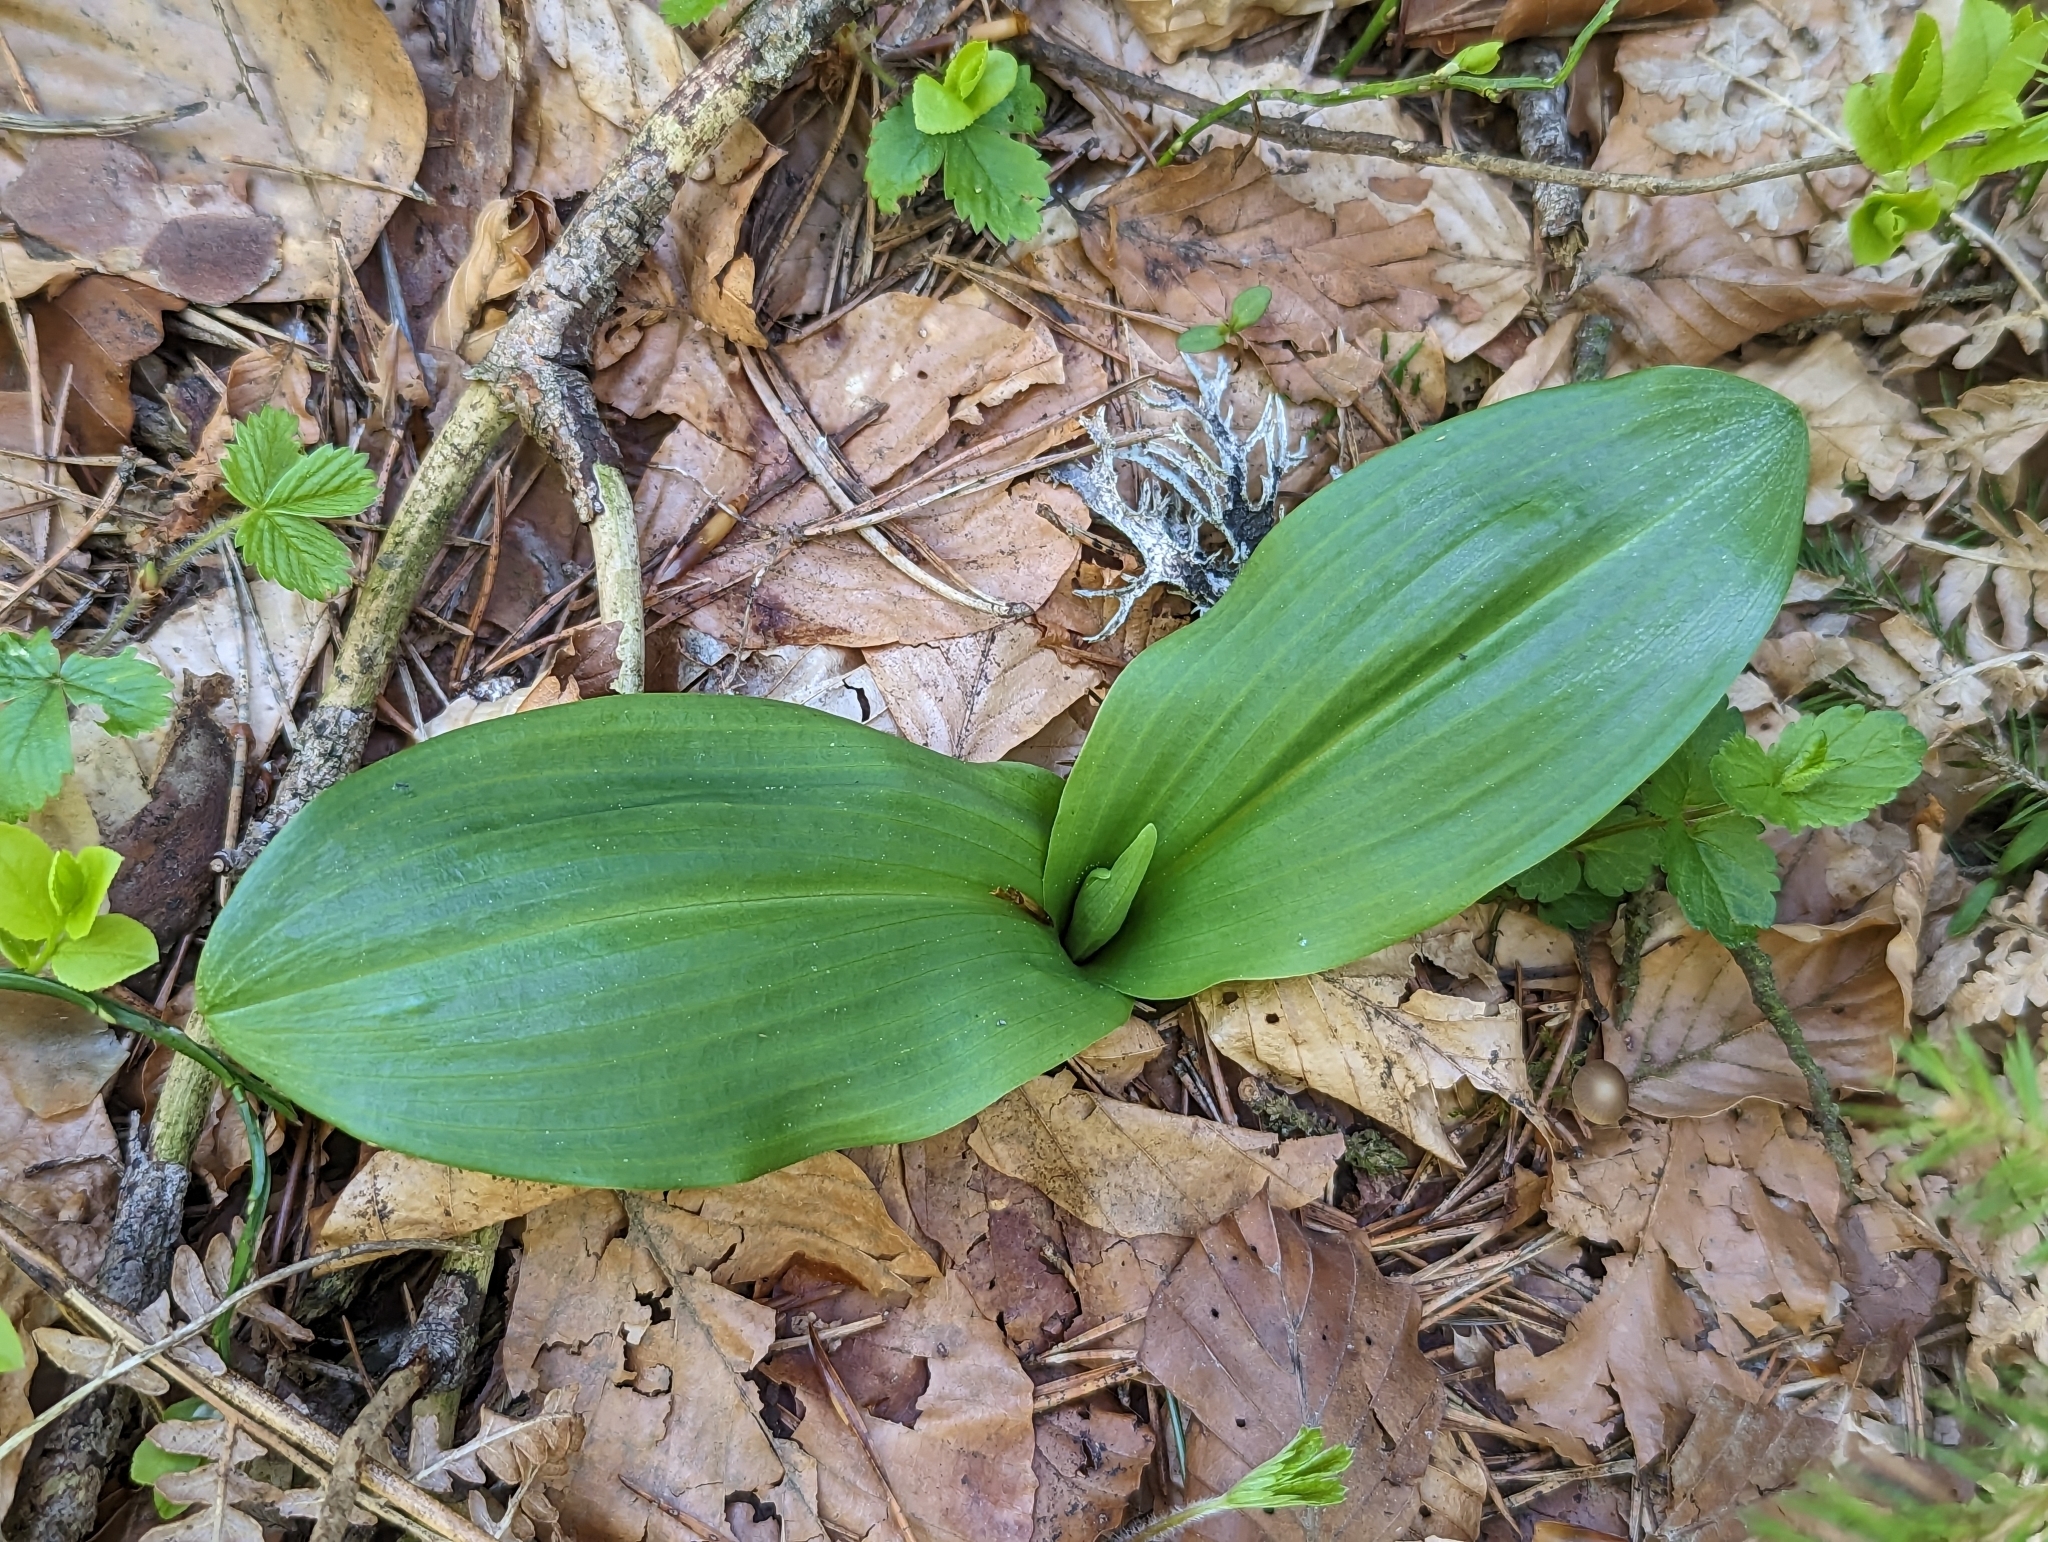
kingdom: Plantae
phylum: Tracheophyta
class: Liliopsida
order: Asparagales
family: Orchidaceae
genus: Platanthera
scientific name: Platanthera bifolia
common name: Lesser butterfly-orchid
